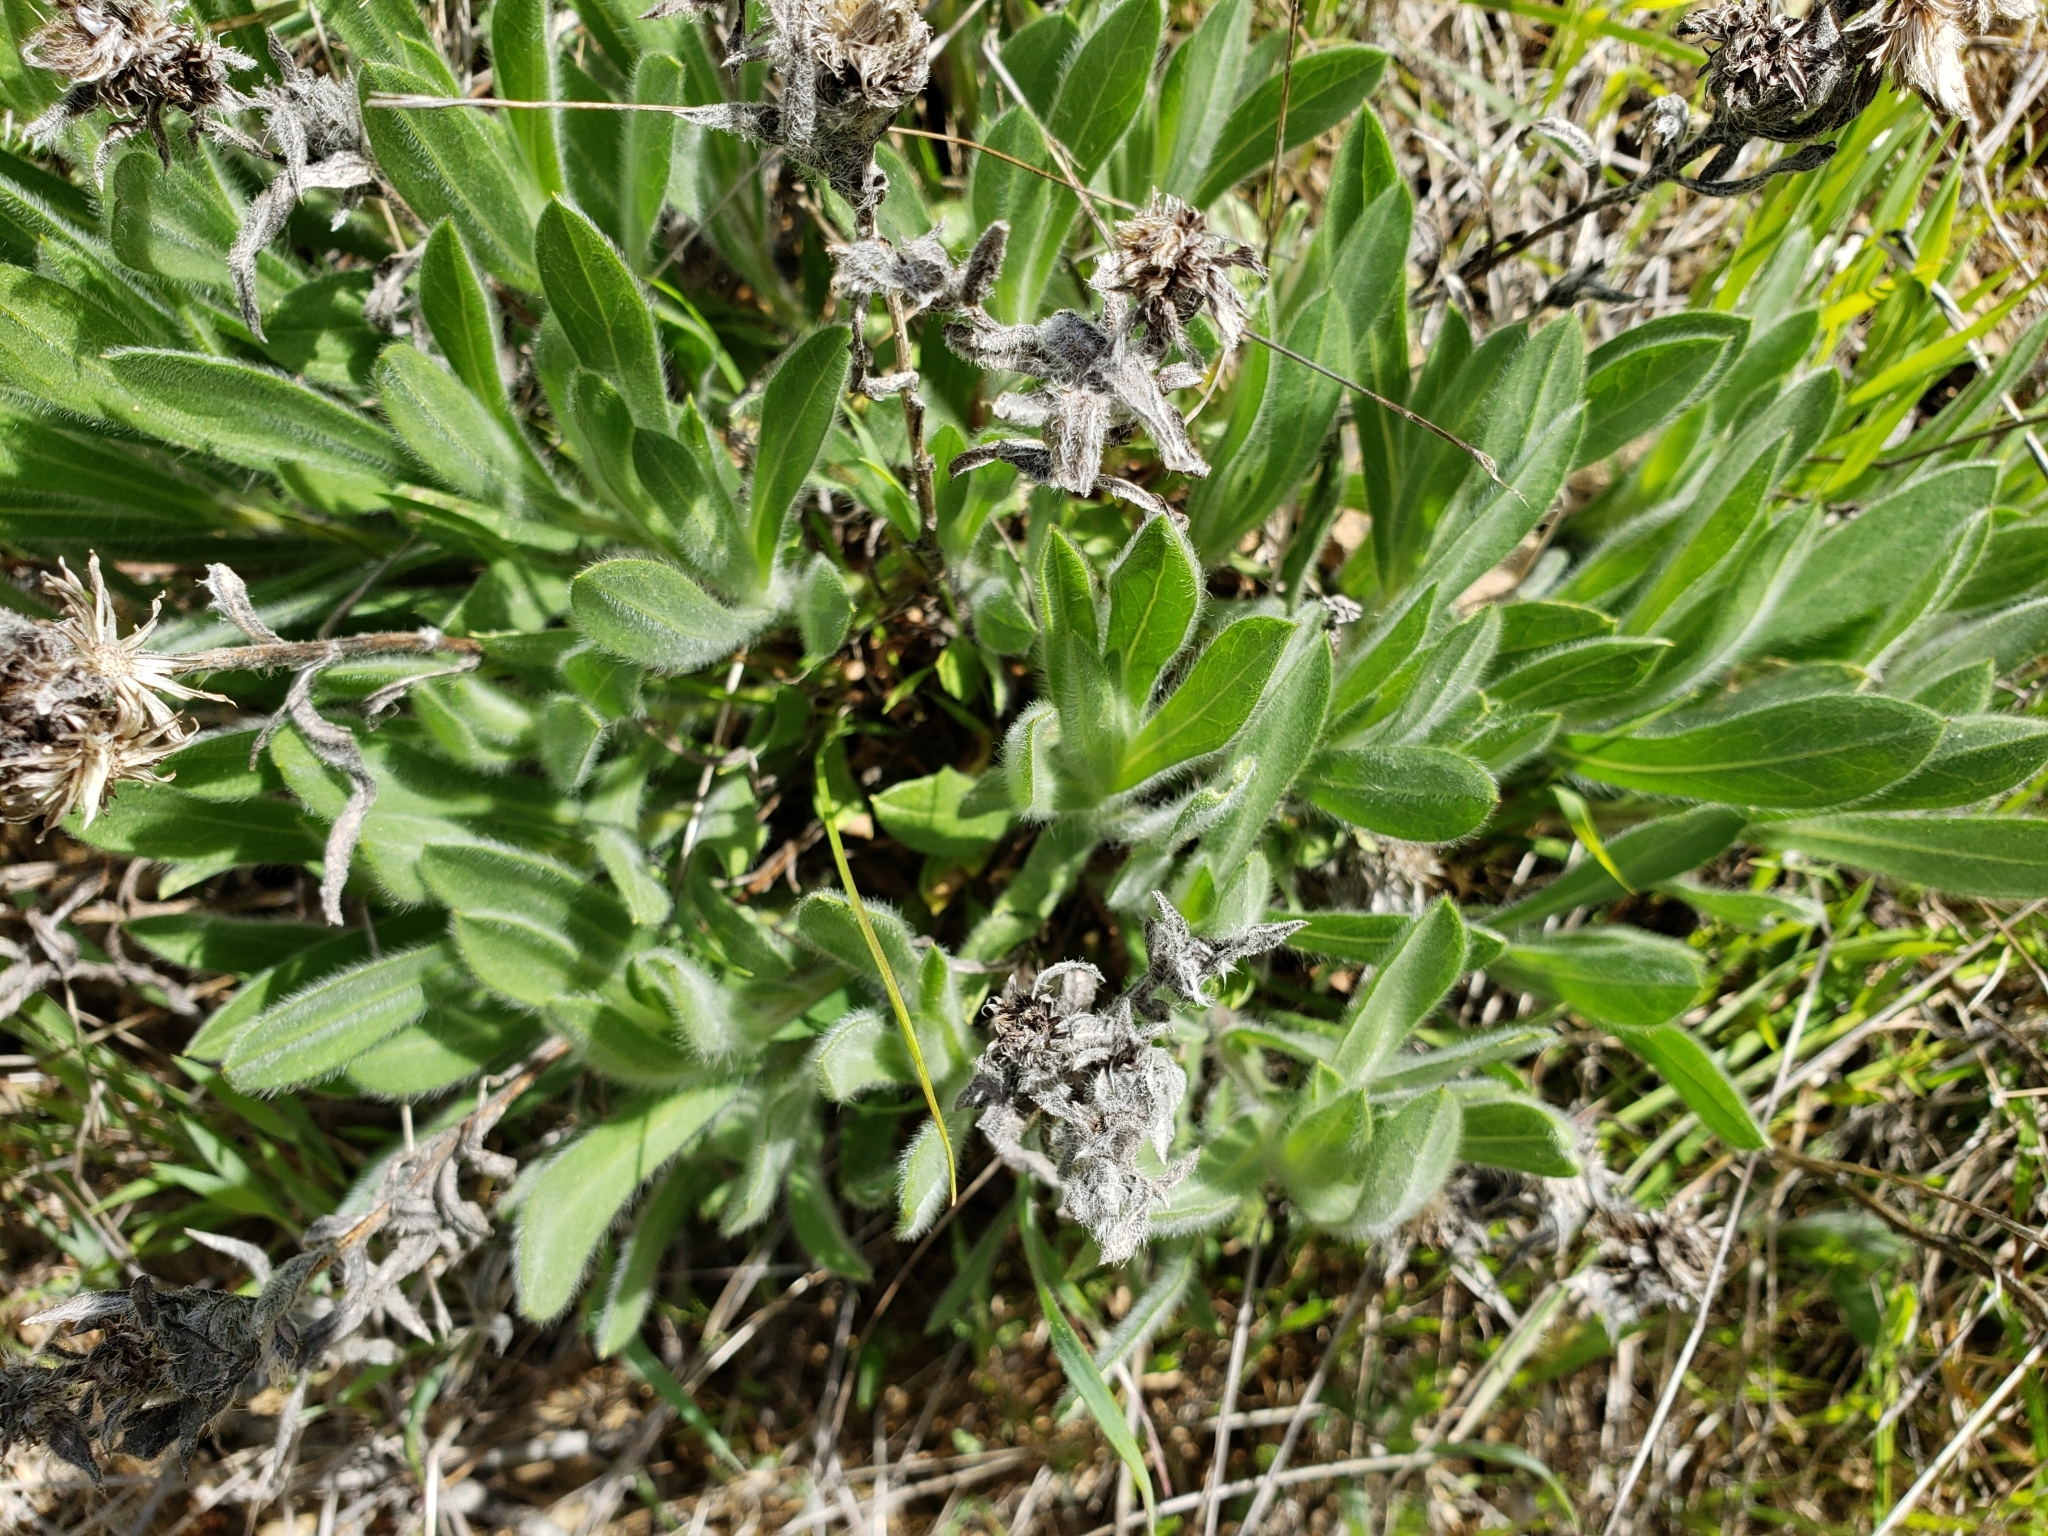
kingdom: Plantae
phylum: Tracheophyta
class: Magnoliopsida
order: Asterales
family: Asteraceae
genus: Heterotheca
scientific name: Heterotheca sessiliflora
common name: Sessile-flower golden-aster
